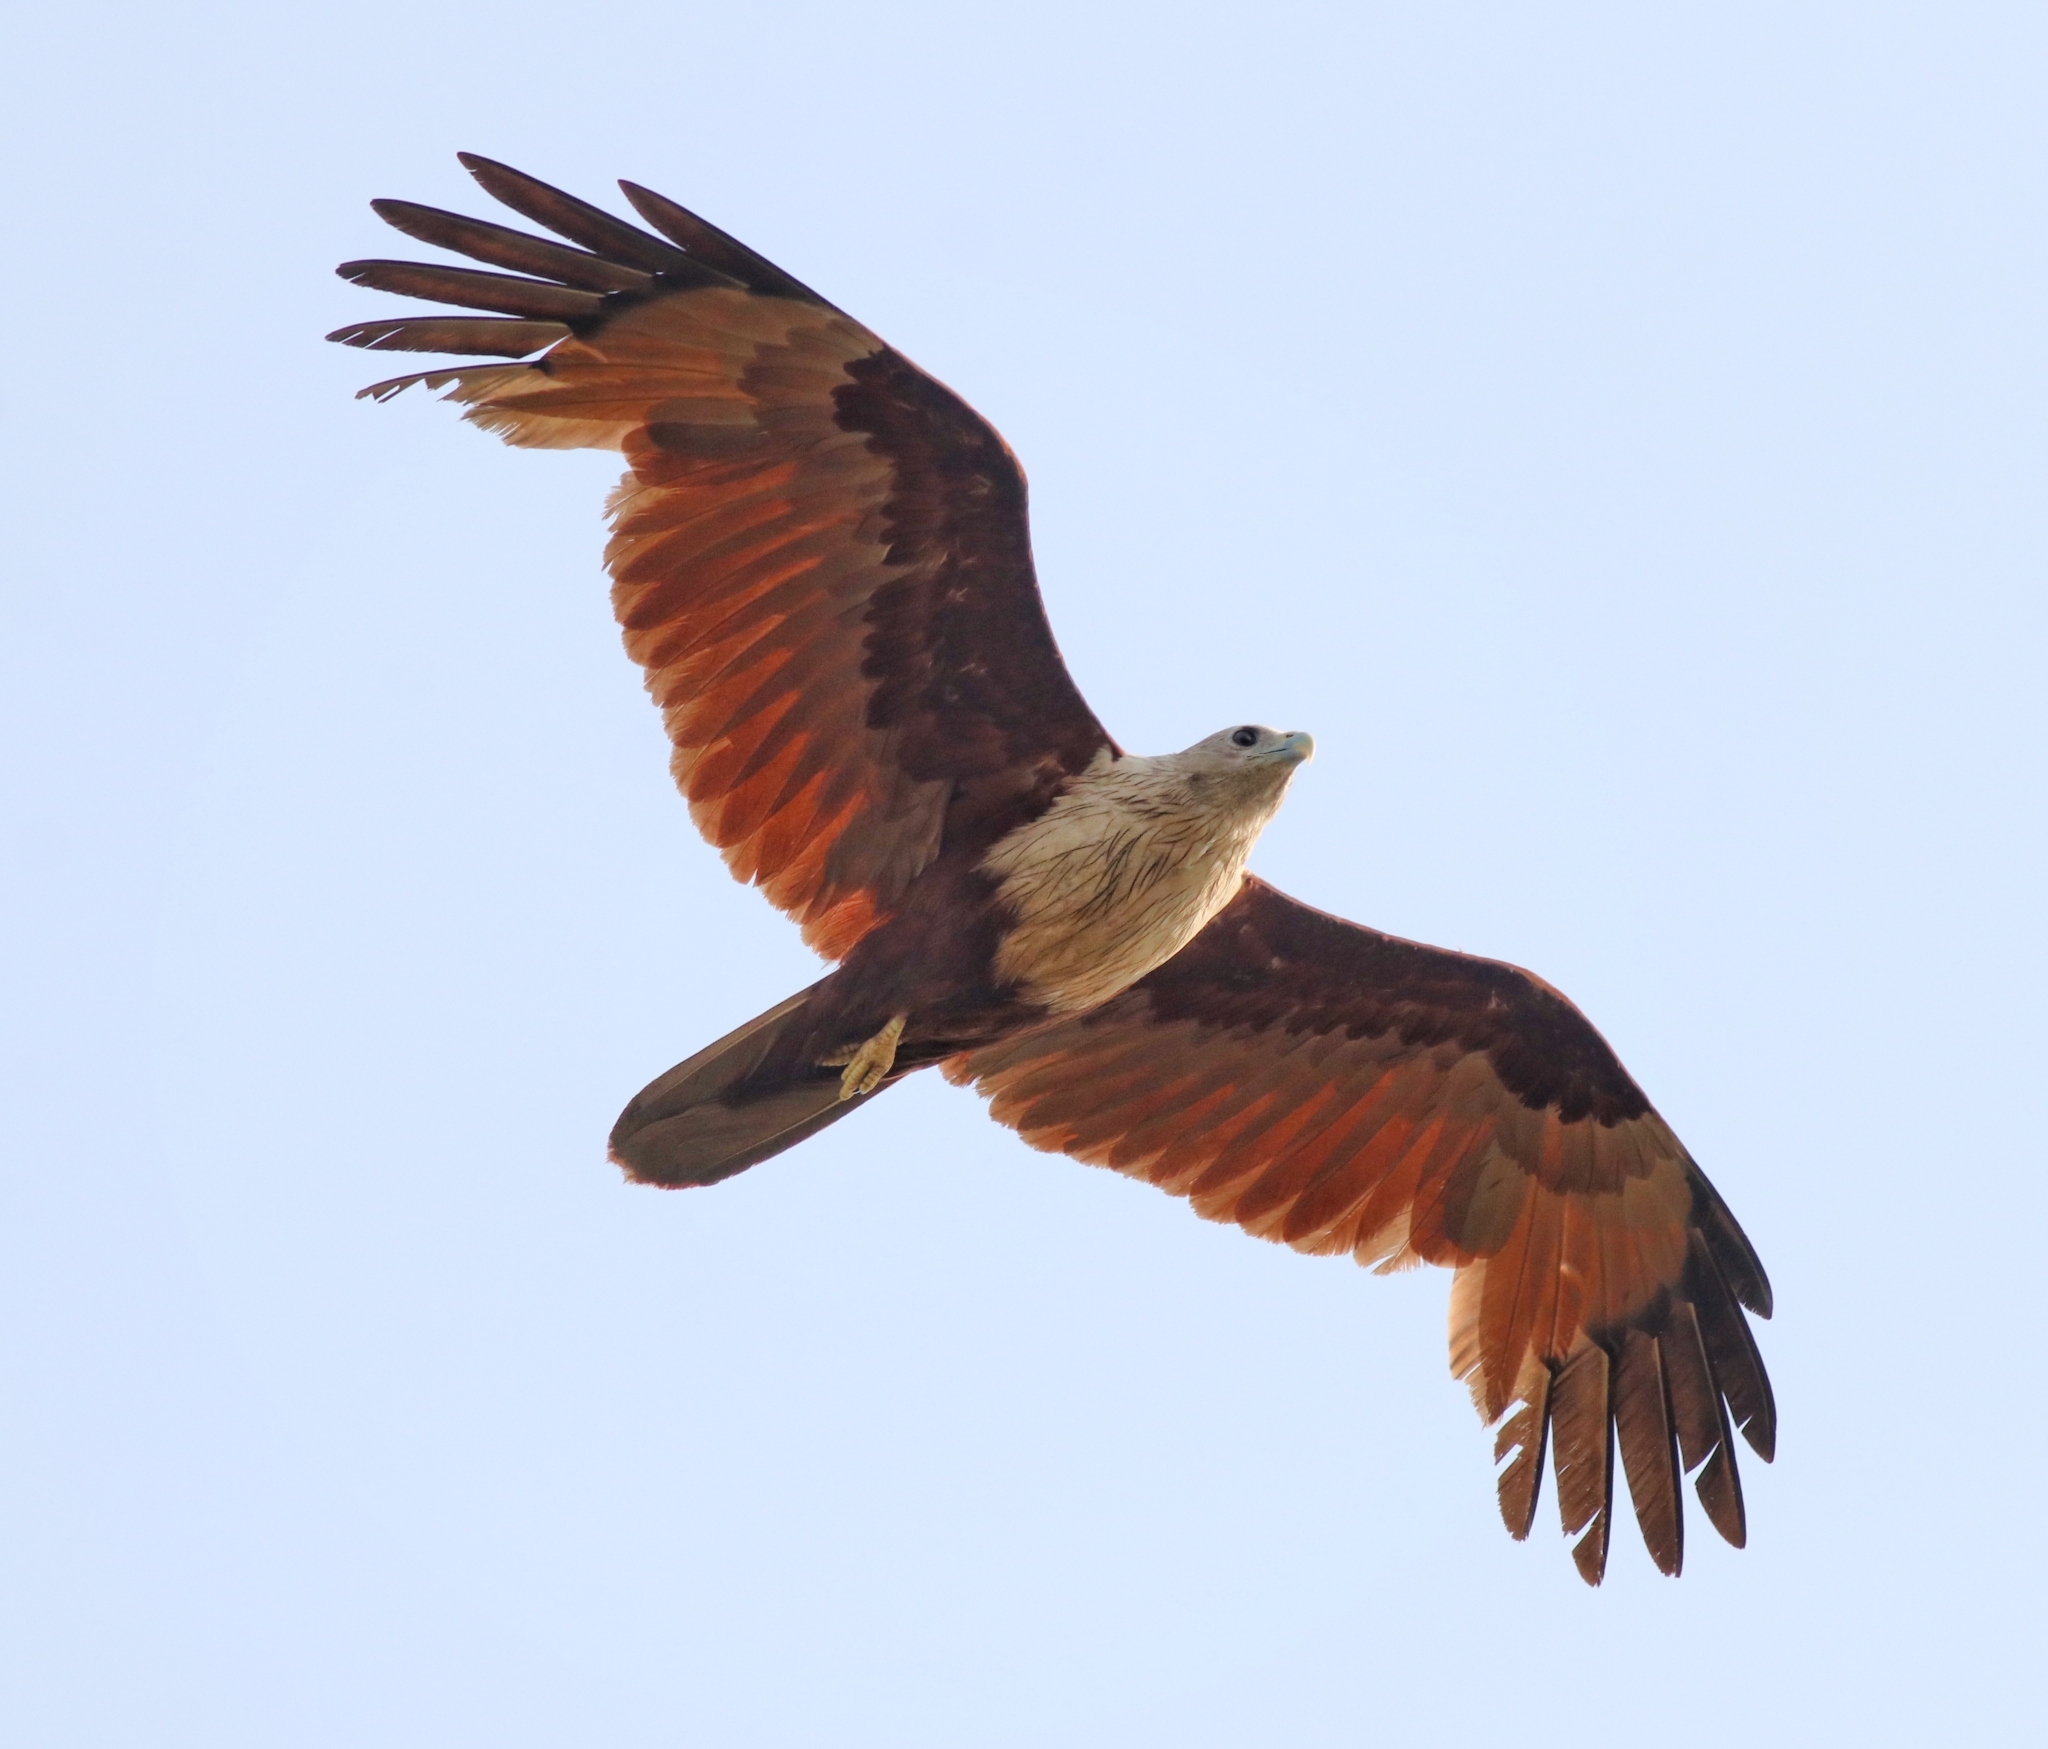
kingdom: Animalia
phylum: Chordata
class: Aves
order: Accipitriformes
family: Accipitridae
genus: Haliastur
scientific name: Haliastur indus
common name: Brahminy kite
